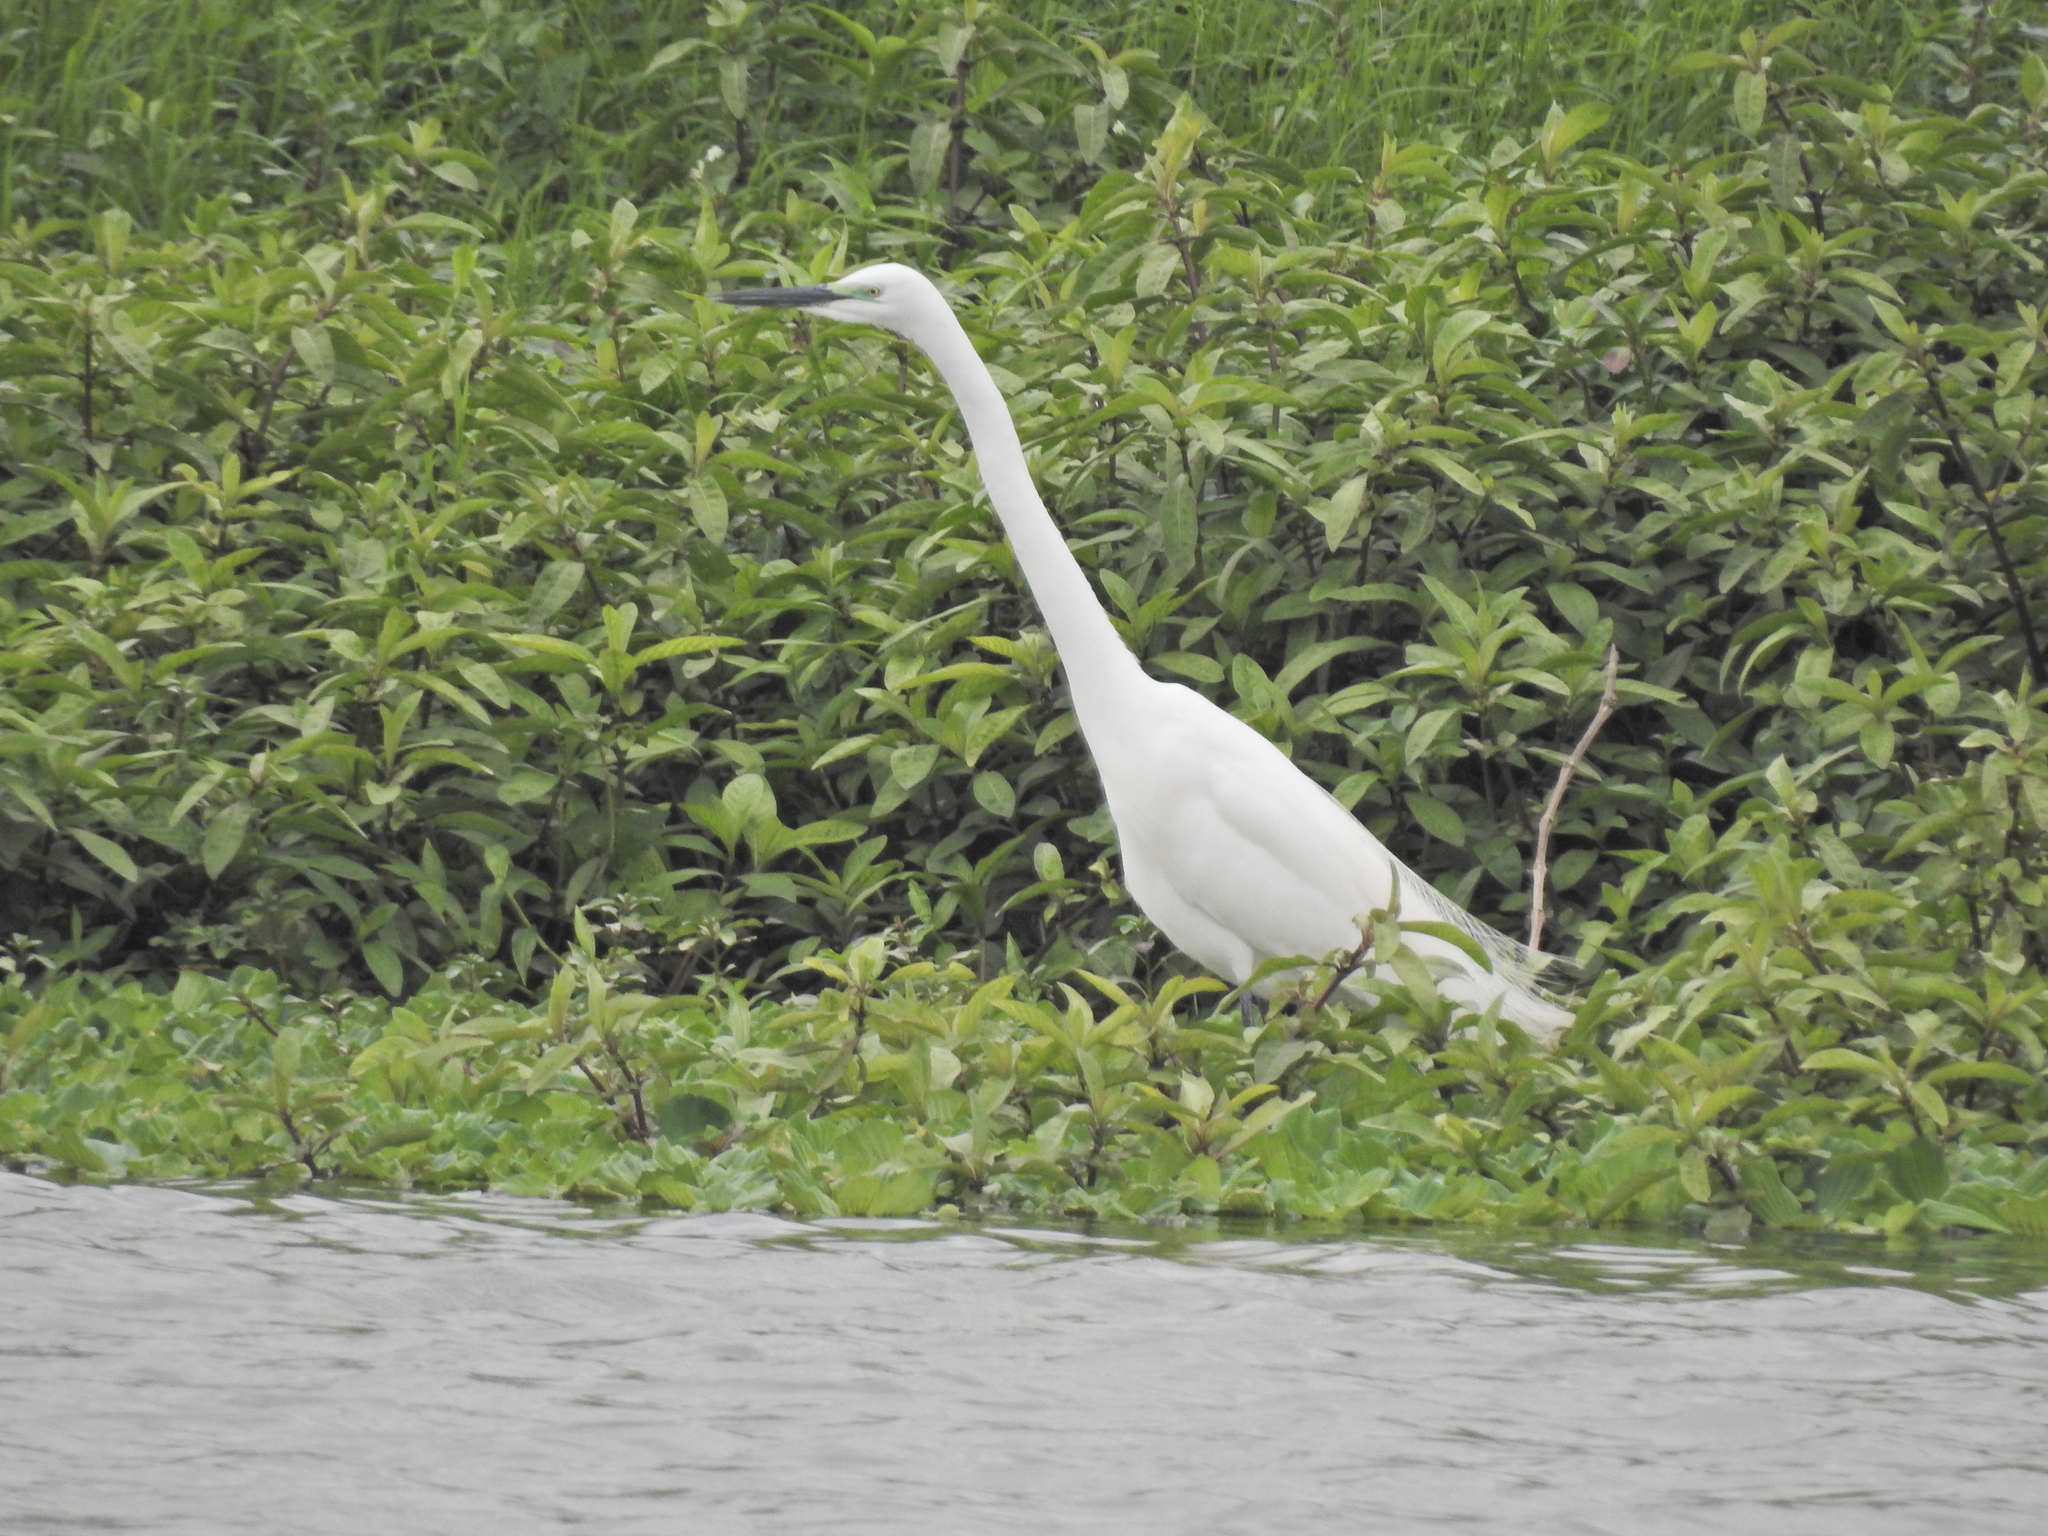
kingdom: Animalia
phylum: Chordata
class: Aves
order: Pelecaniformes
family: Ardeidae
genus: Egretta
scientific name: Egretta intermedia
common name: Intermediate egret
